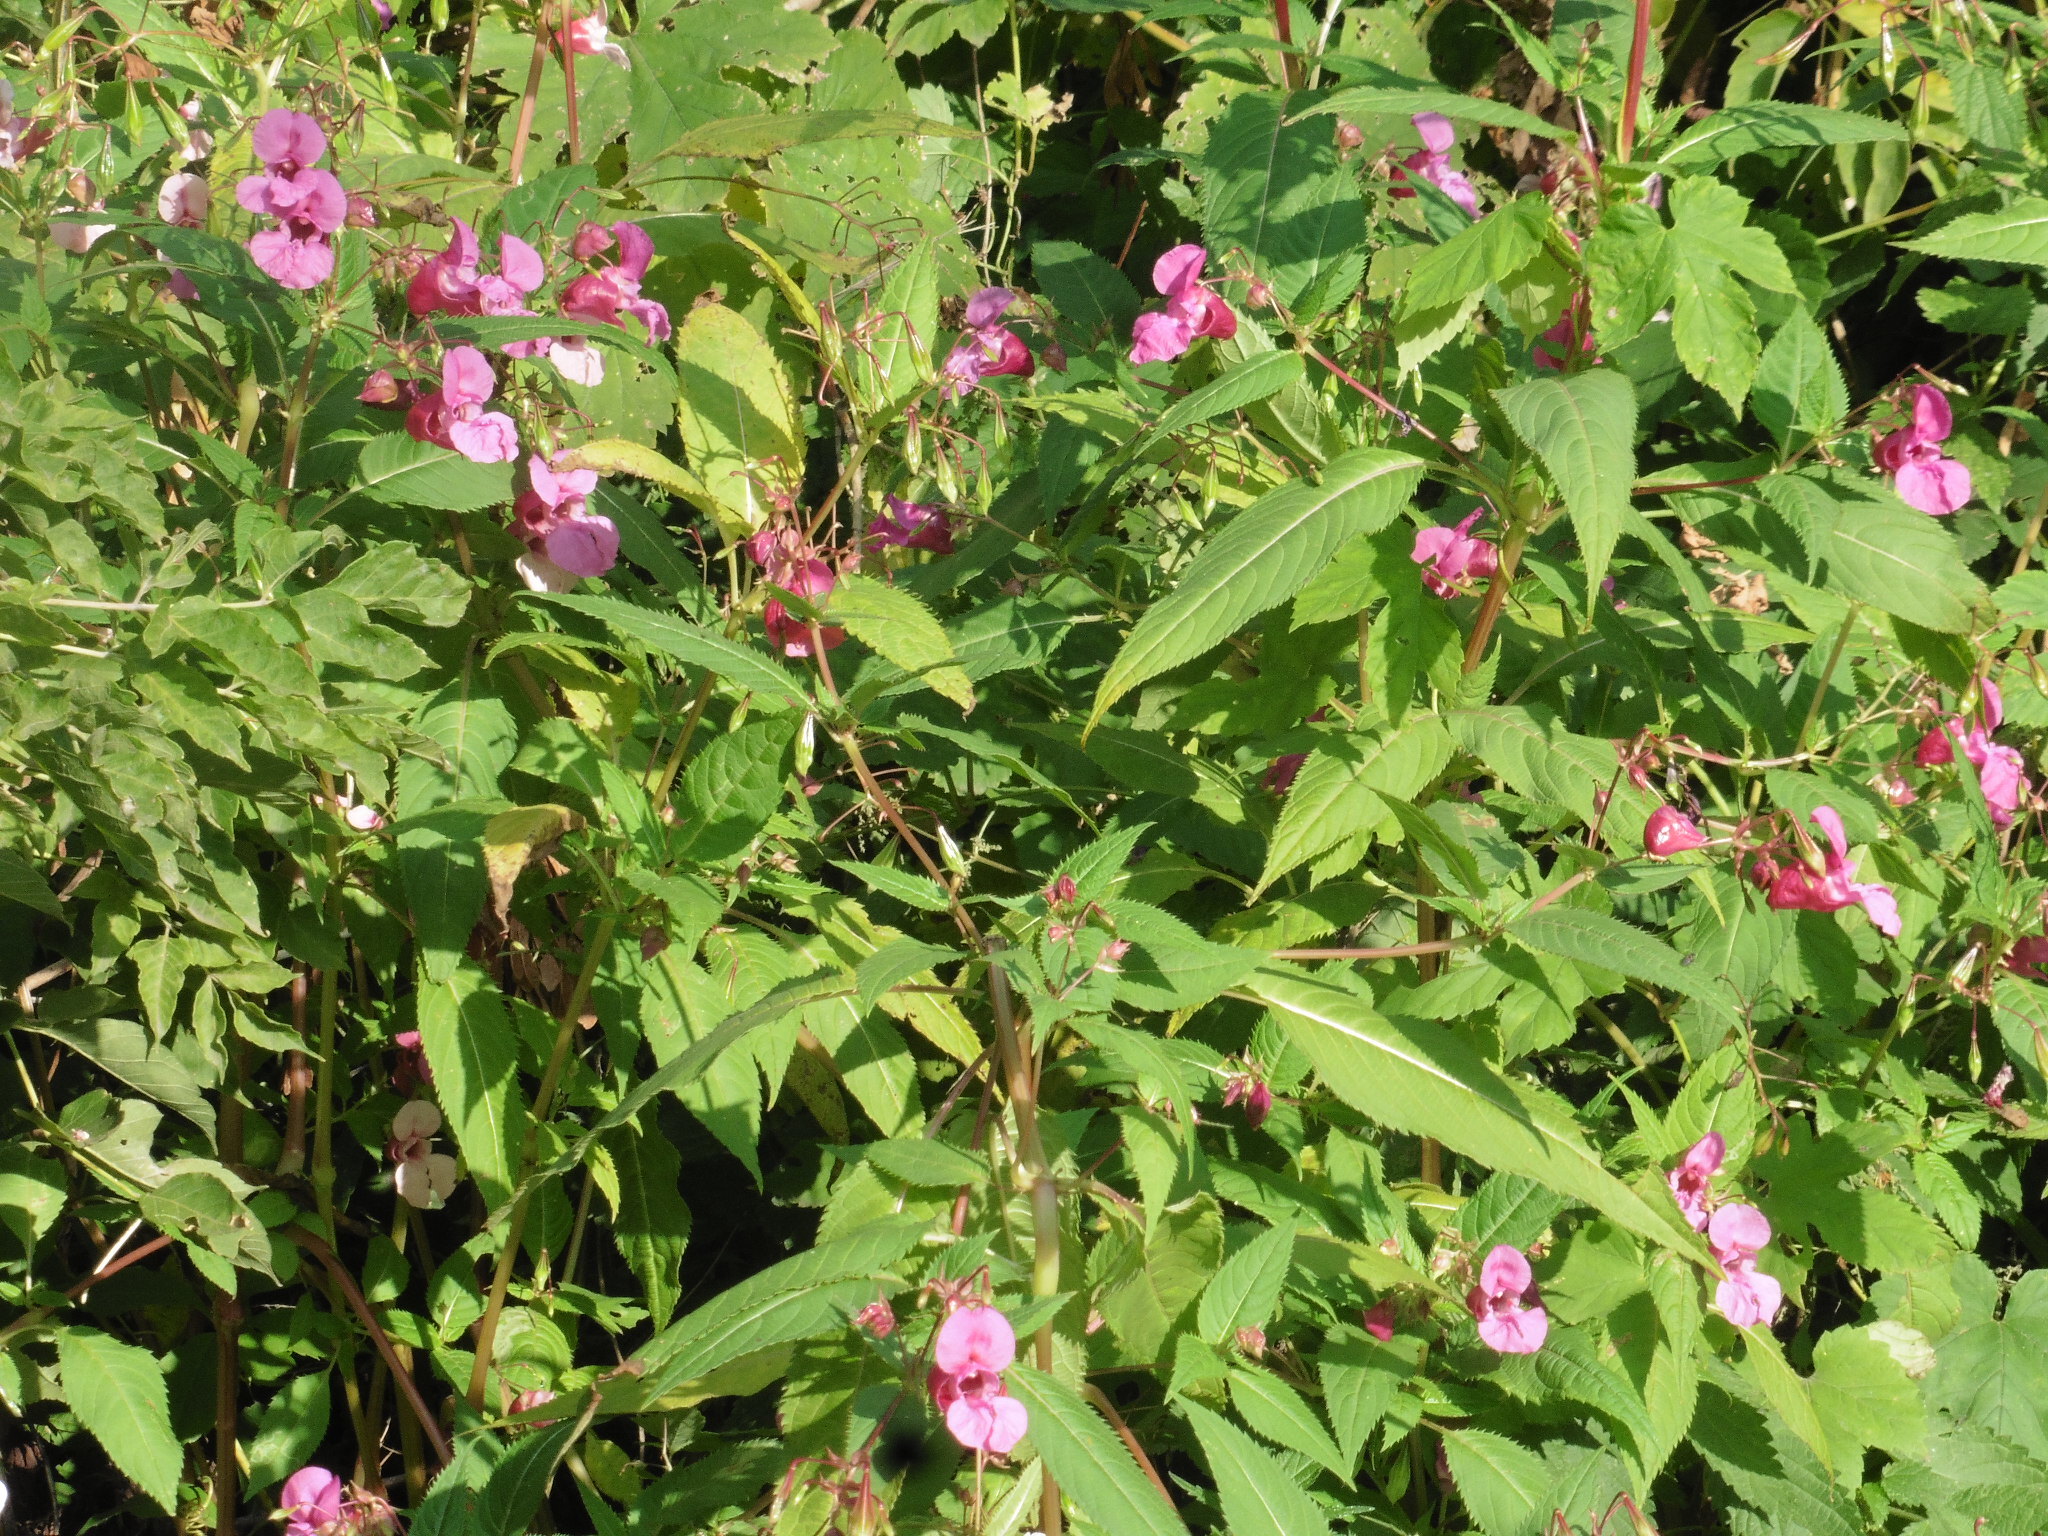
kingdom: Plantae
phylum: Tracheophyta
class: Magnoliopsida
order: Ericales
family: Balsaminaceae
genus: Impatiens
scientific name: Impatiens glandulifera
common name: Himalayan balsam
